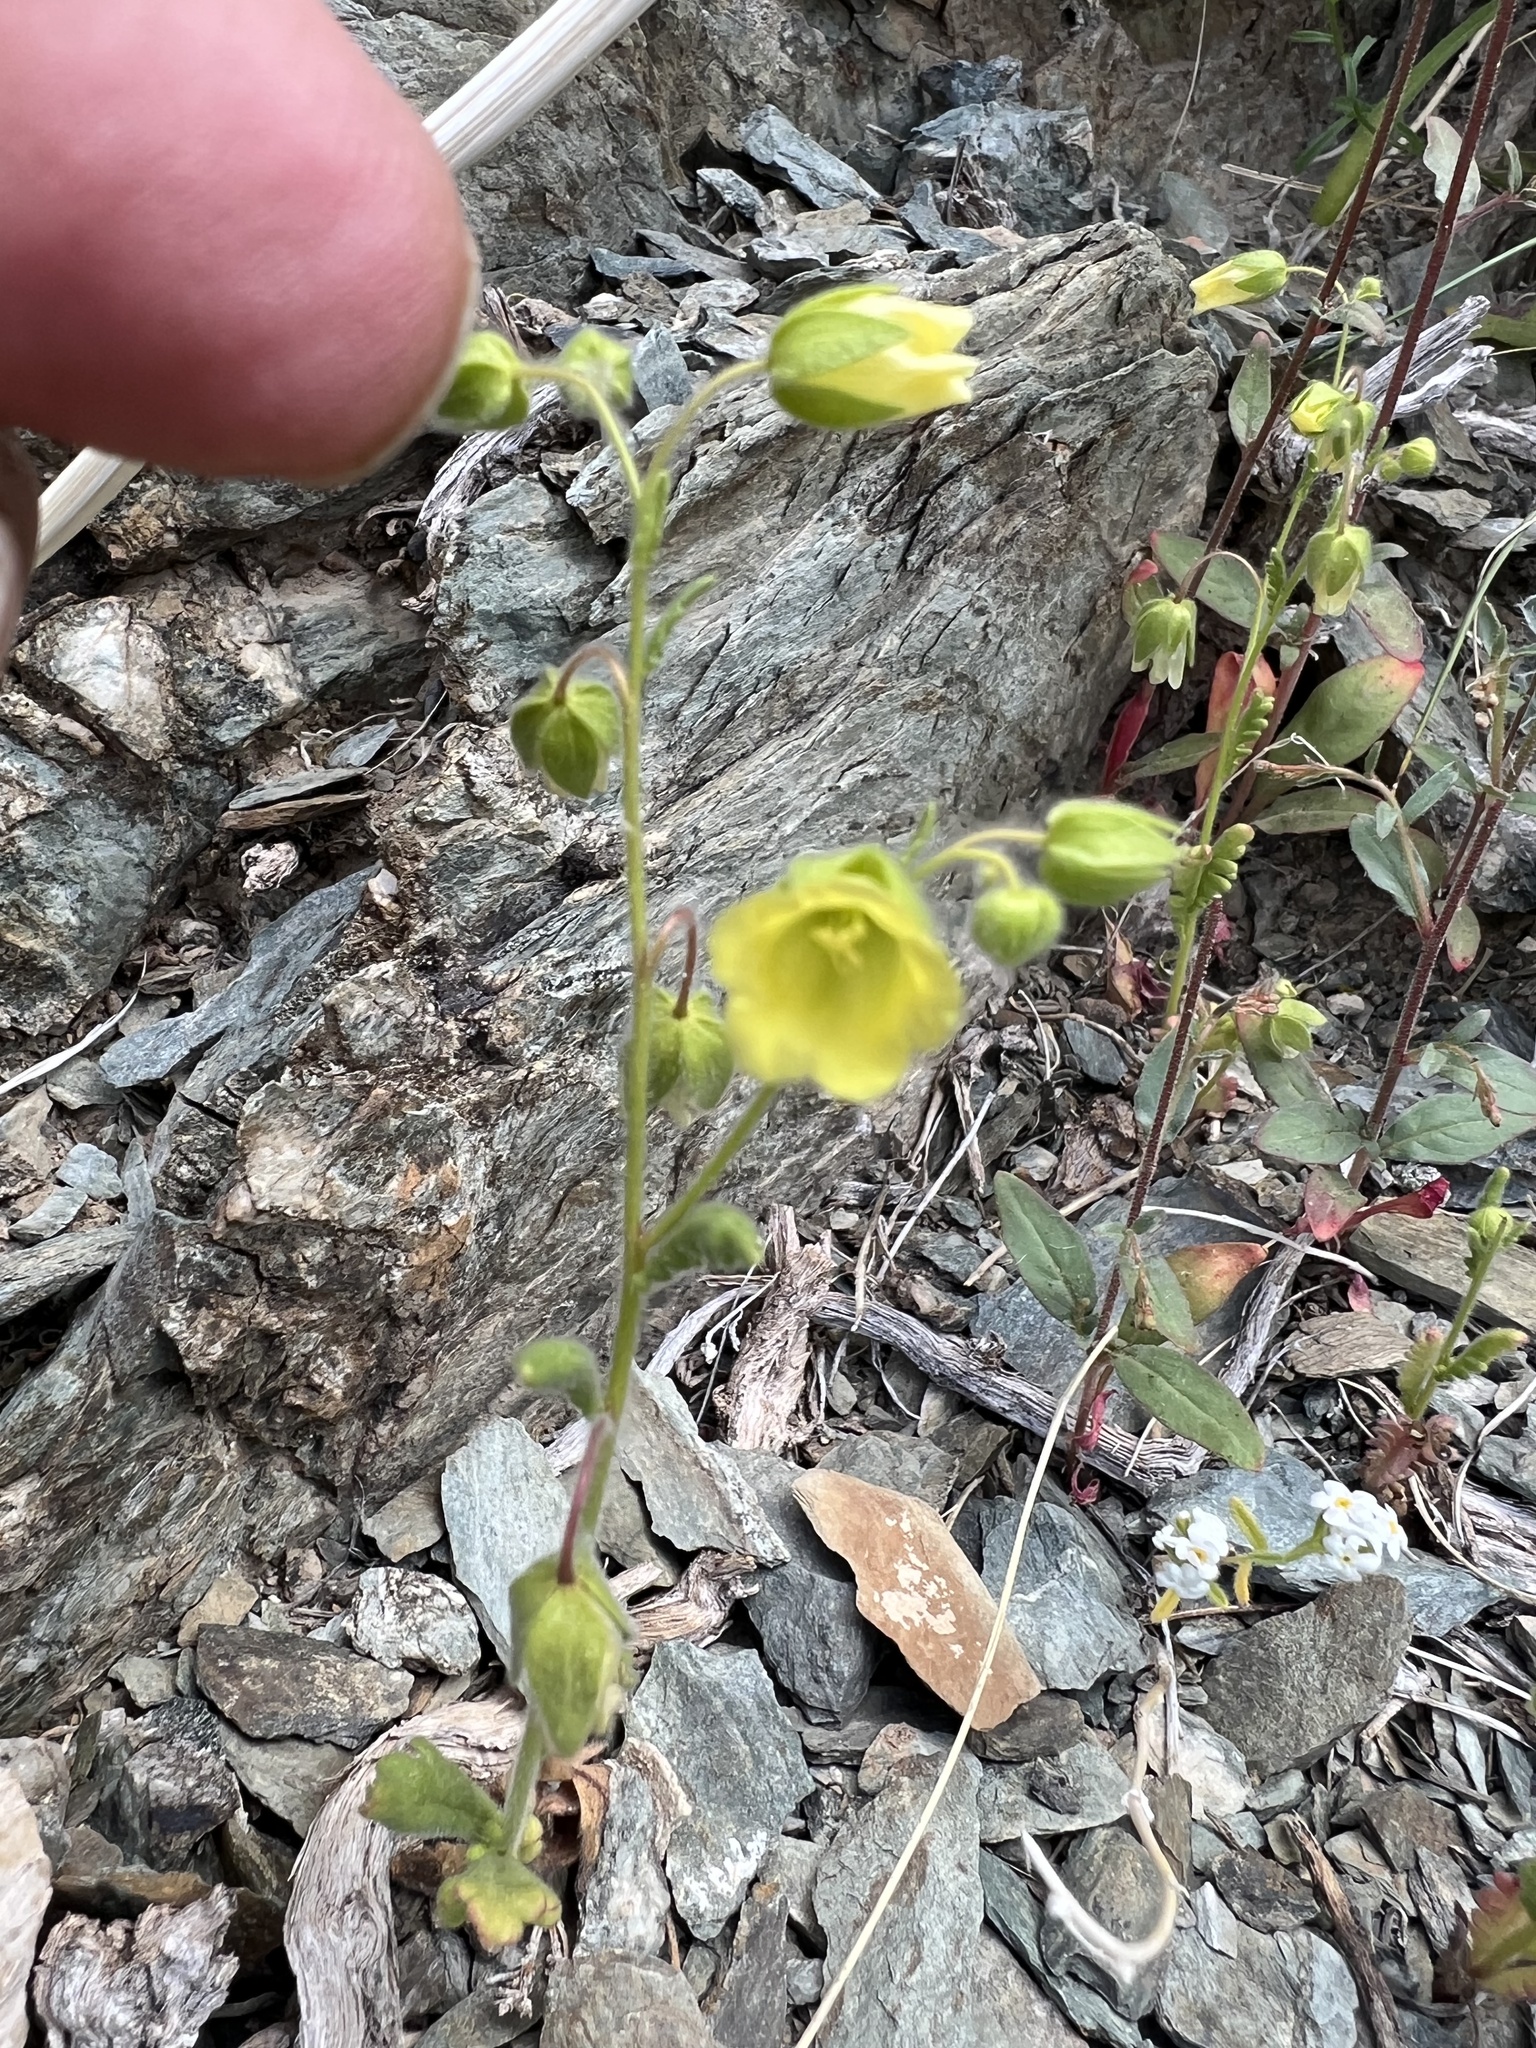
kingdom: Plantae
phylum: Tracheophyta
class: Magnoliopsida
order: Boraginales
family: Hydrophyllaceae
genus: Emmenanthe
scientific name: Emmenanthe penduliflora
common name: Whispering-bells
